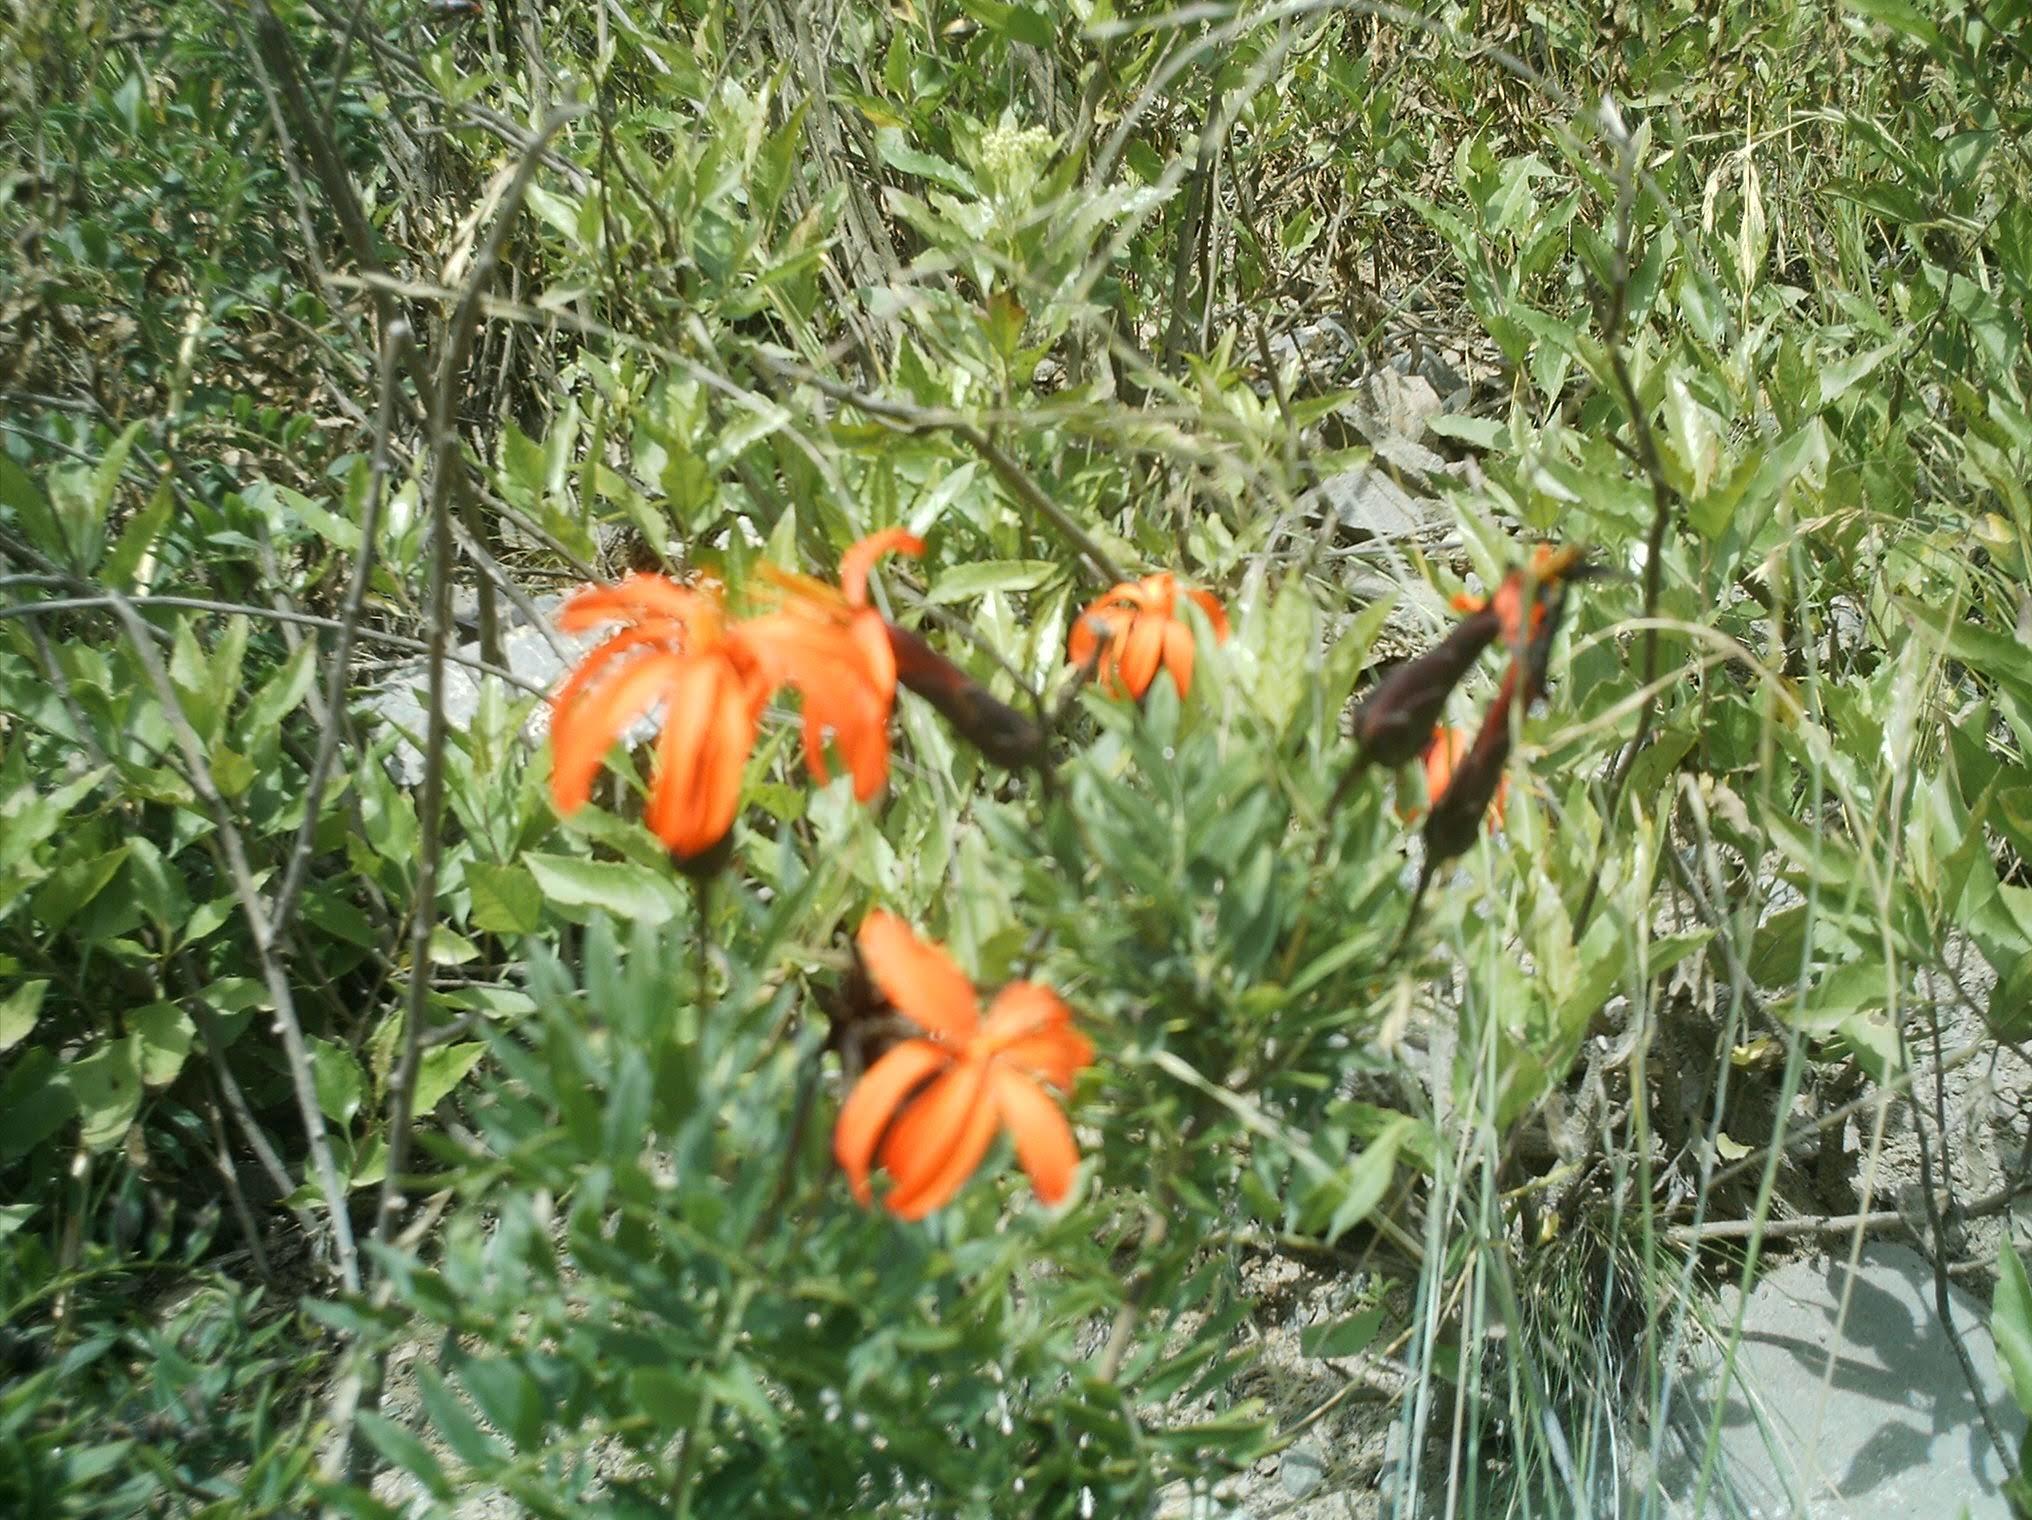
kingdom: Plantae
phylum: Tracheophyta
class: Magnoliopsida
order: Asterales
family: Asteraceae
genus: Mutisia
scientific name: Mutisia acuminata
